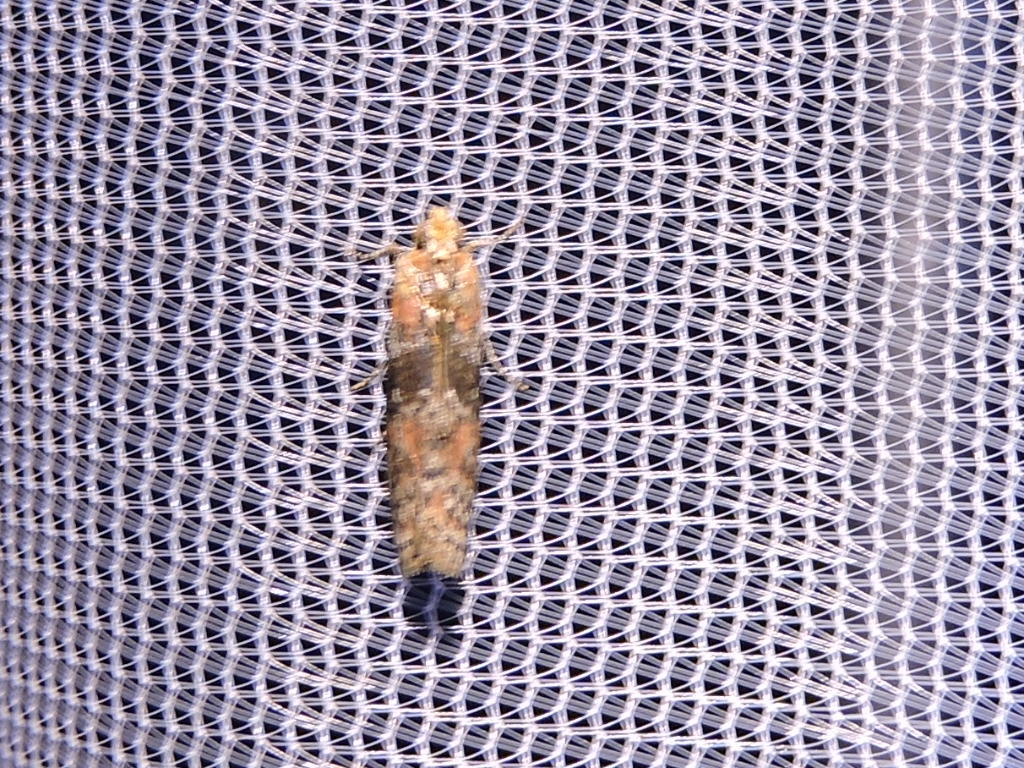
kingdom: Animalia
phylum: Arthropoda
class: Insecta
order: Lepidoptera
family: Pyralidae
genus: Sciota
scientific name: Sciota
